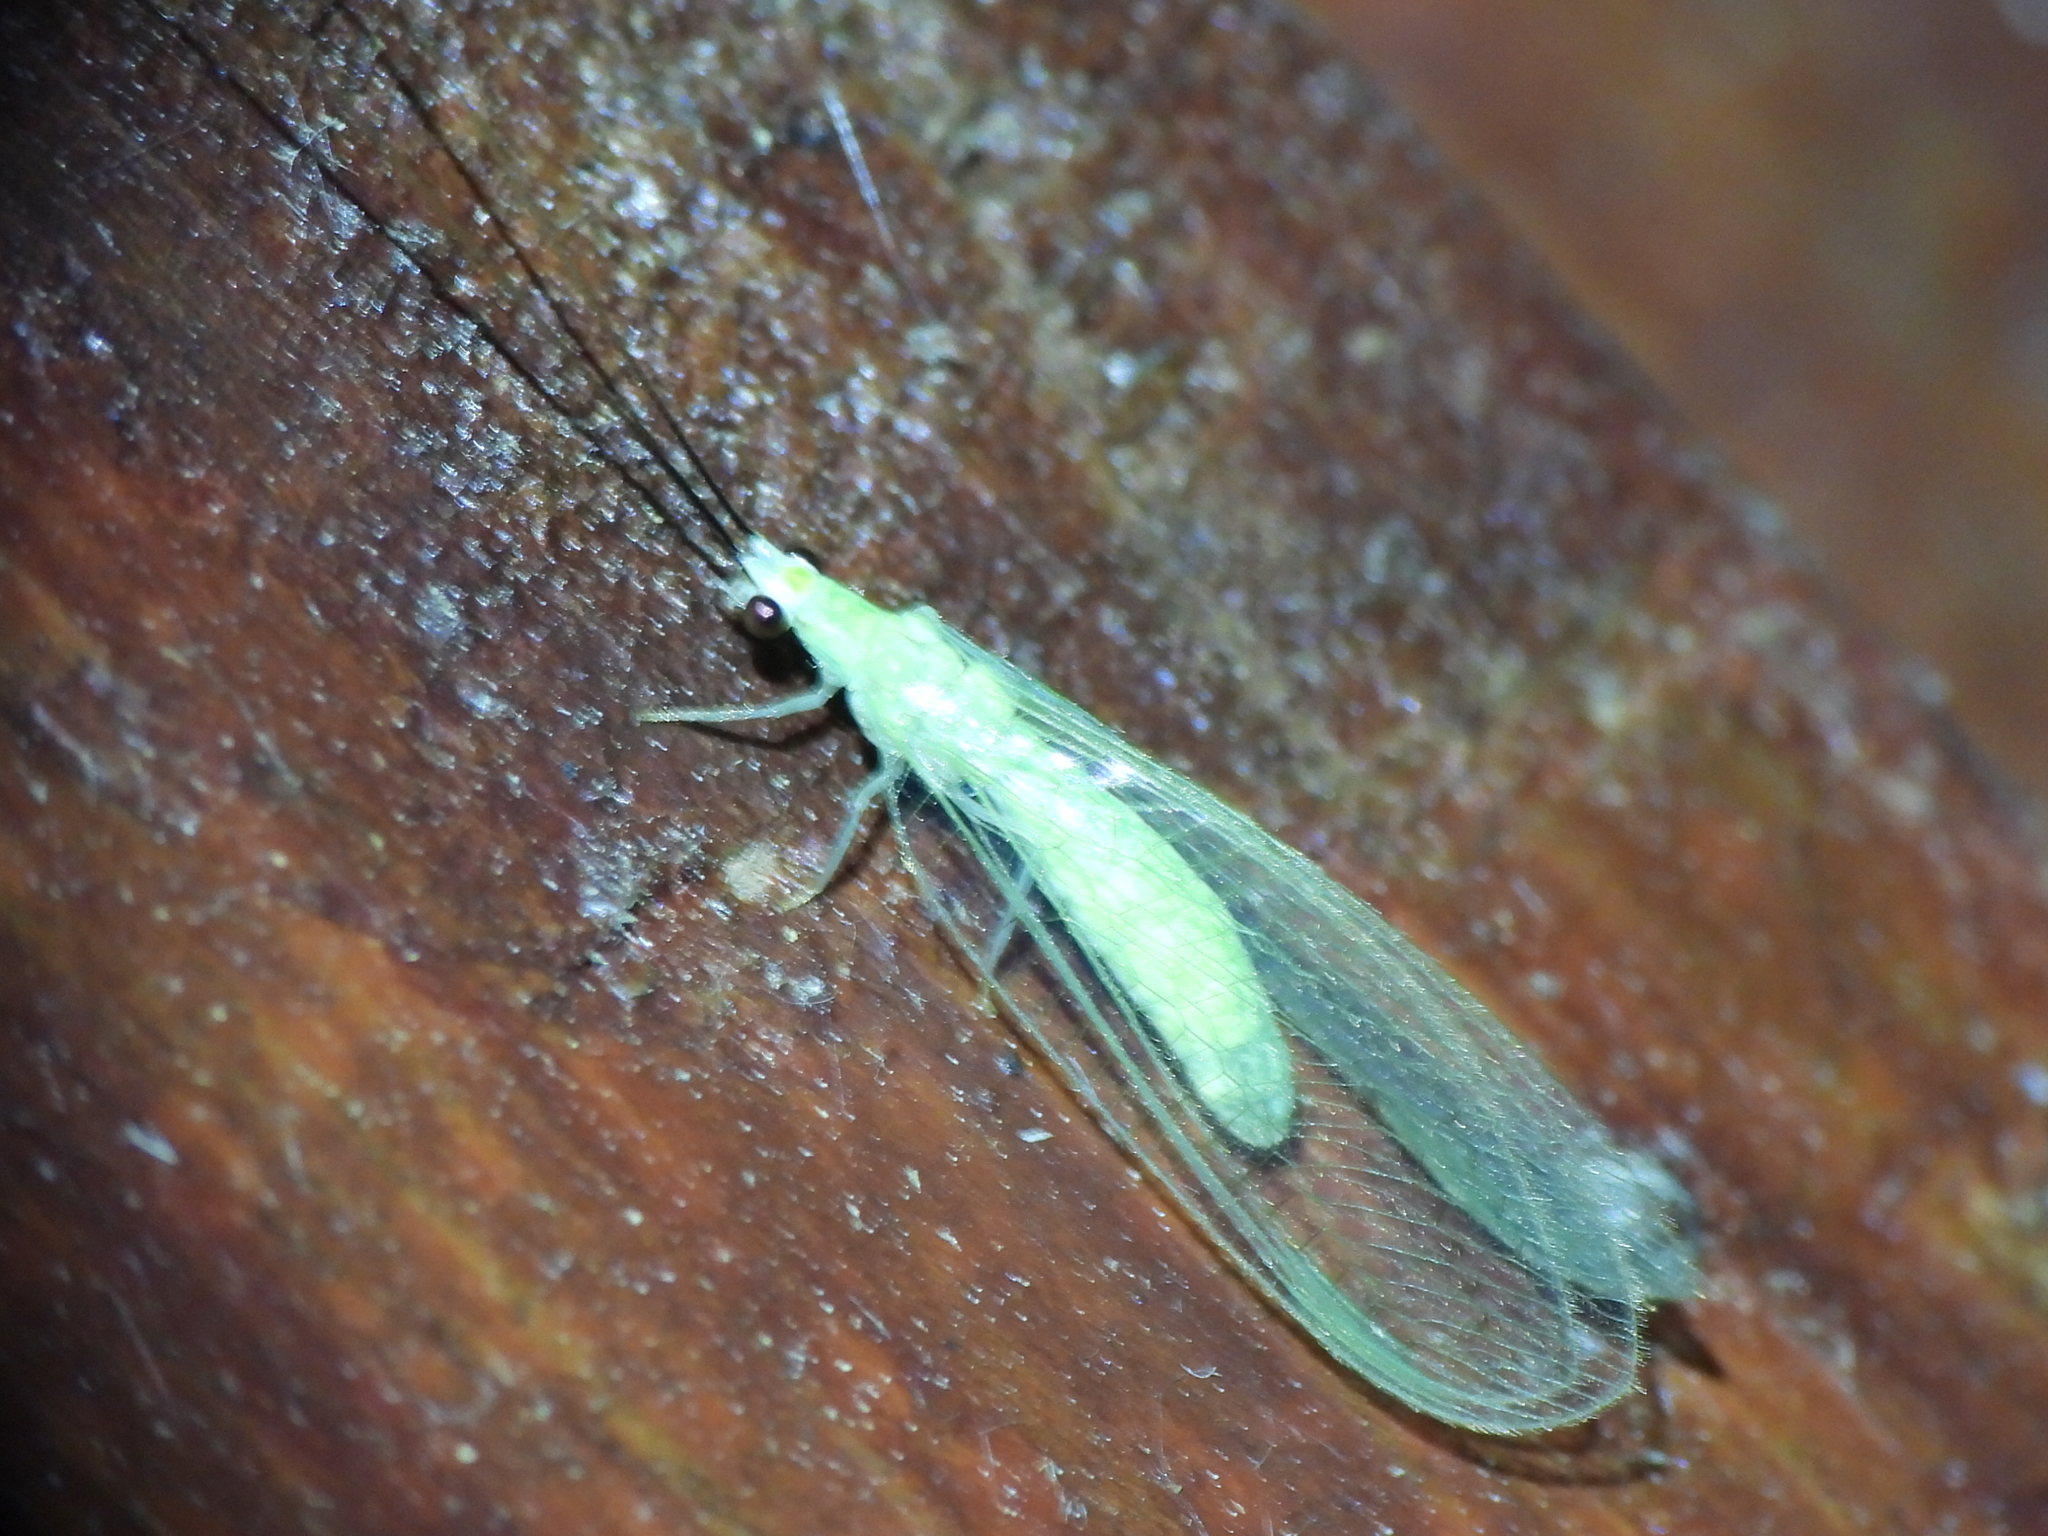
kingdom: Animalia
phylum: Arthropoda
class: Insecta
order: Neuroptera
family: Chrysopidae
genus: Chrysopa
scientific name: Chrysopa nigricornis
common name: Black-horned green lacewing
